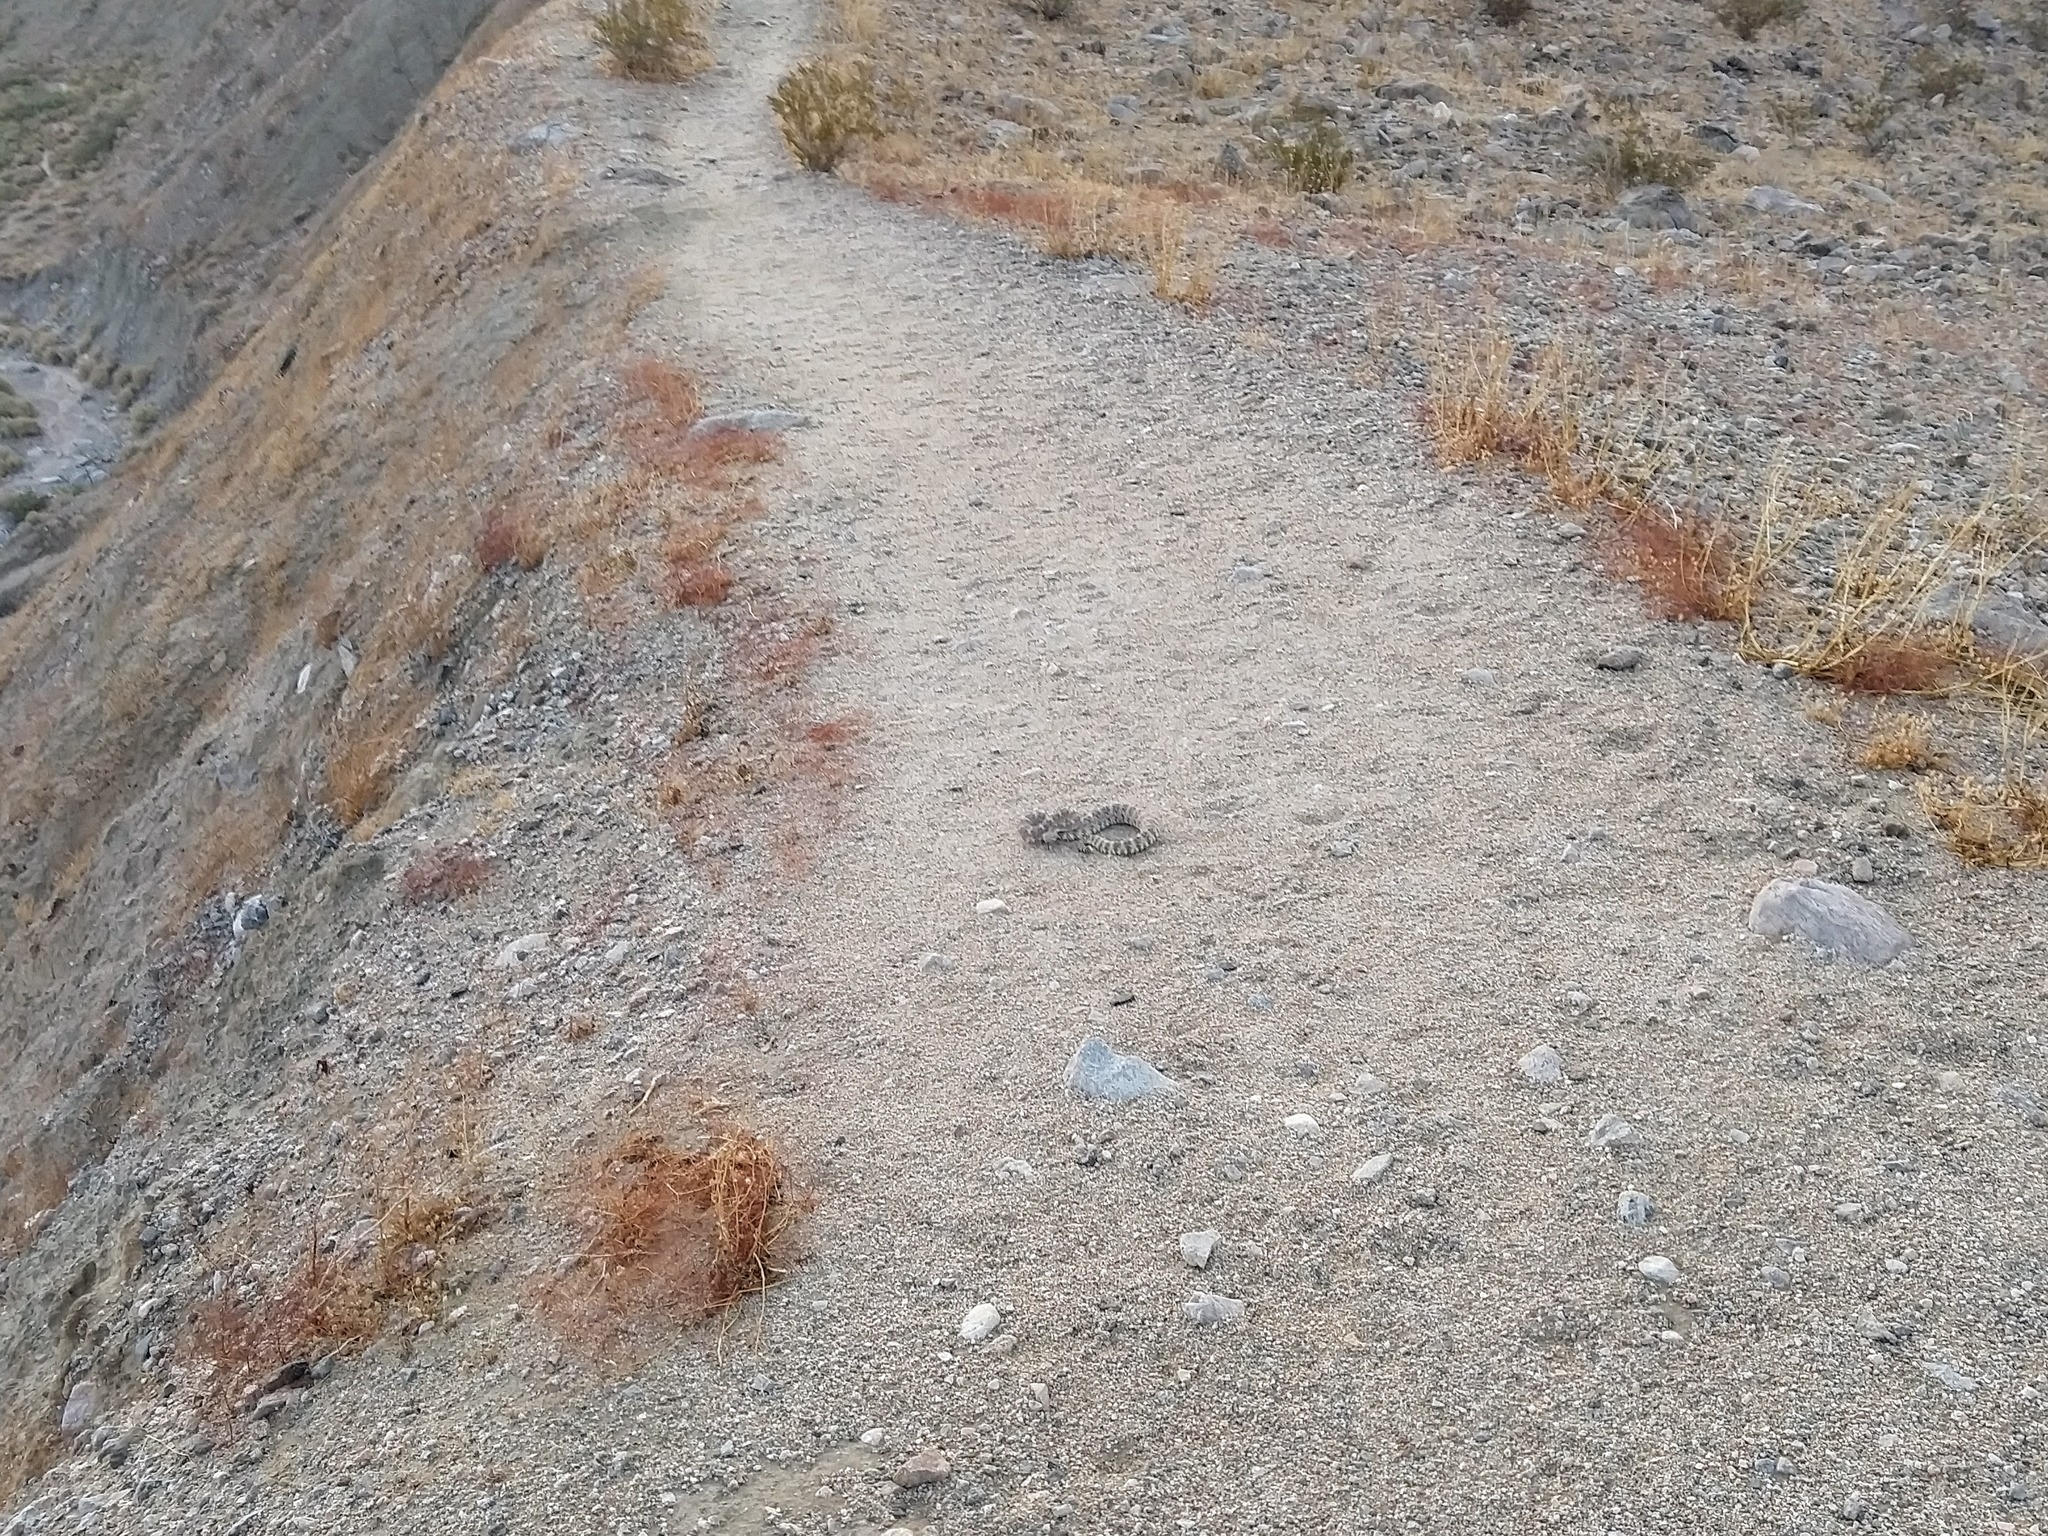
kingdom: Animalia
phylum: Chordata
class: Squamata
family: Viperidae
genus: Crotalus
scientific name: Crotalus pyrrhus
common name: Southwestern speckled rattlesnake
